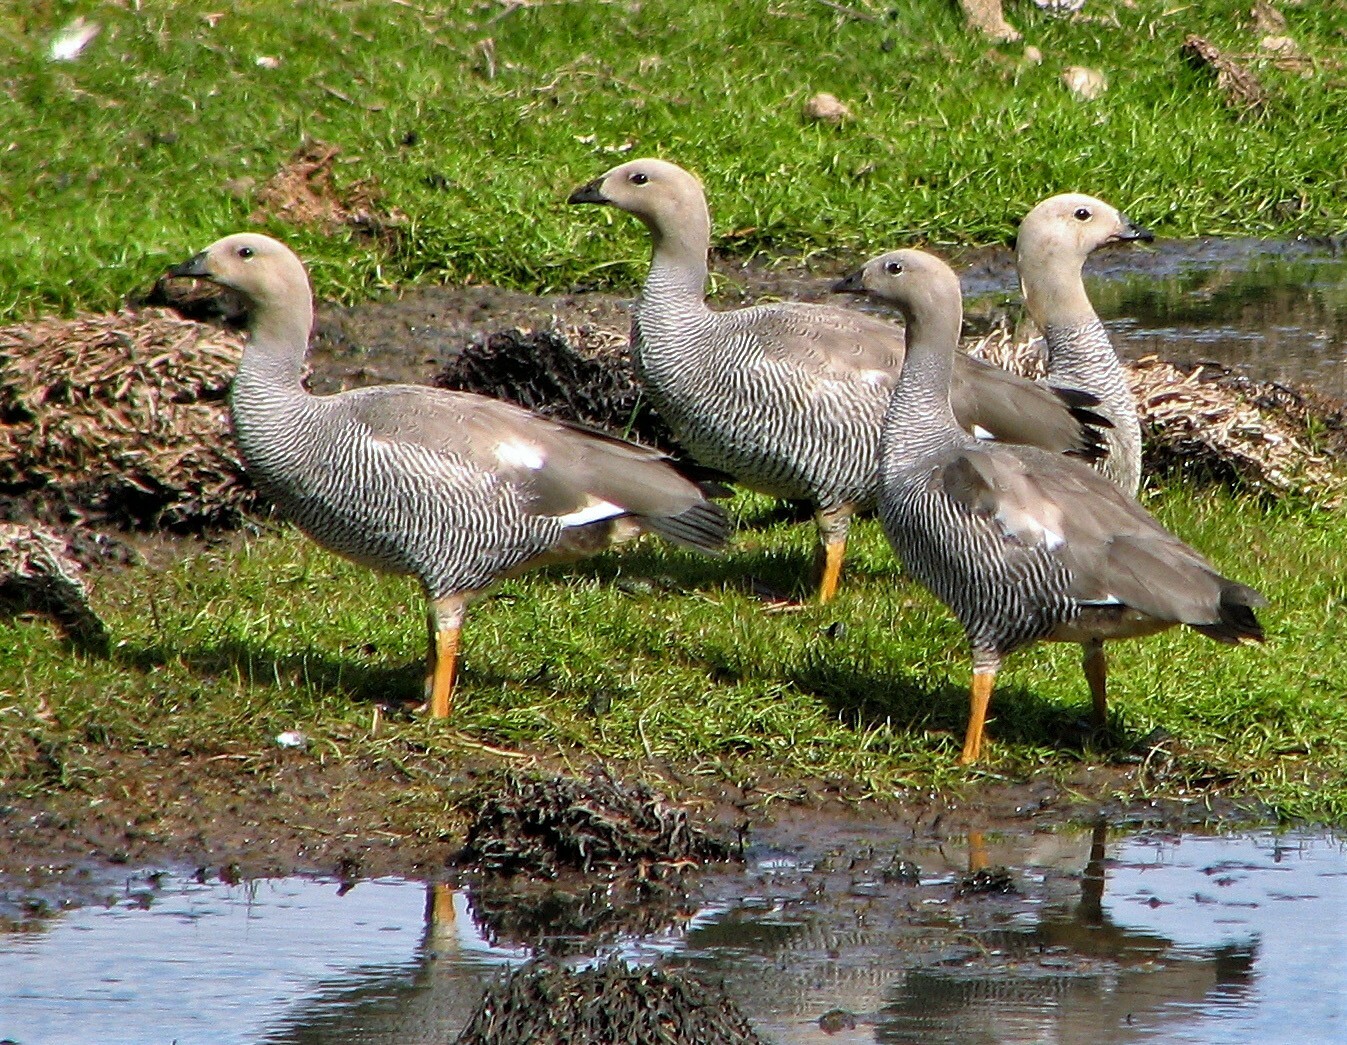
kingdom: Animalia
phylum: Chordata
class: Aves
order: Anseriformes
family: Anatidae
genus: Chloephaga
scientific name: Chloephaga rubidiceps
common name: Ruddy-headed goose
